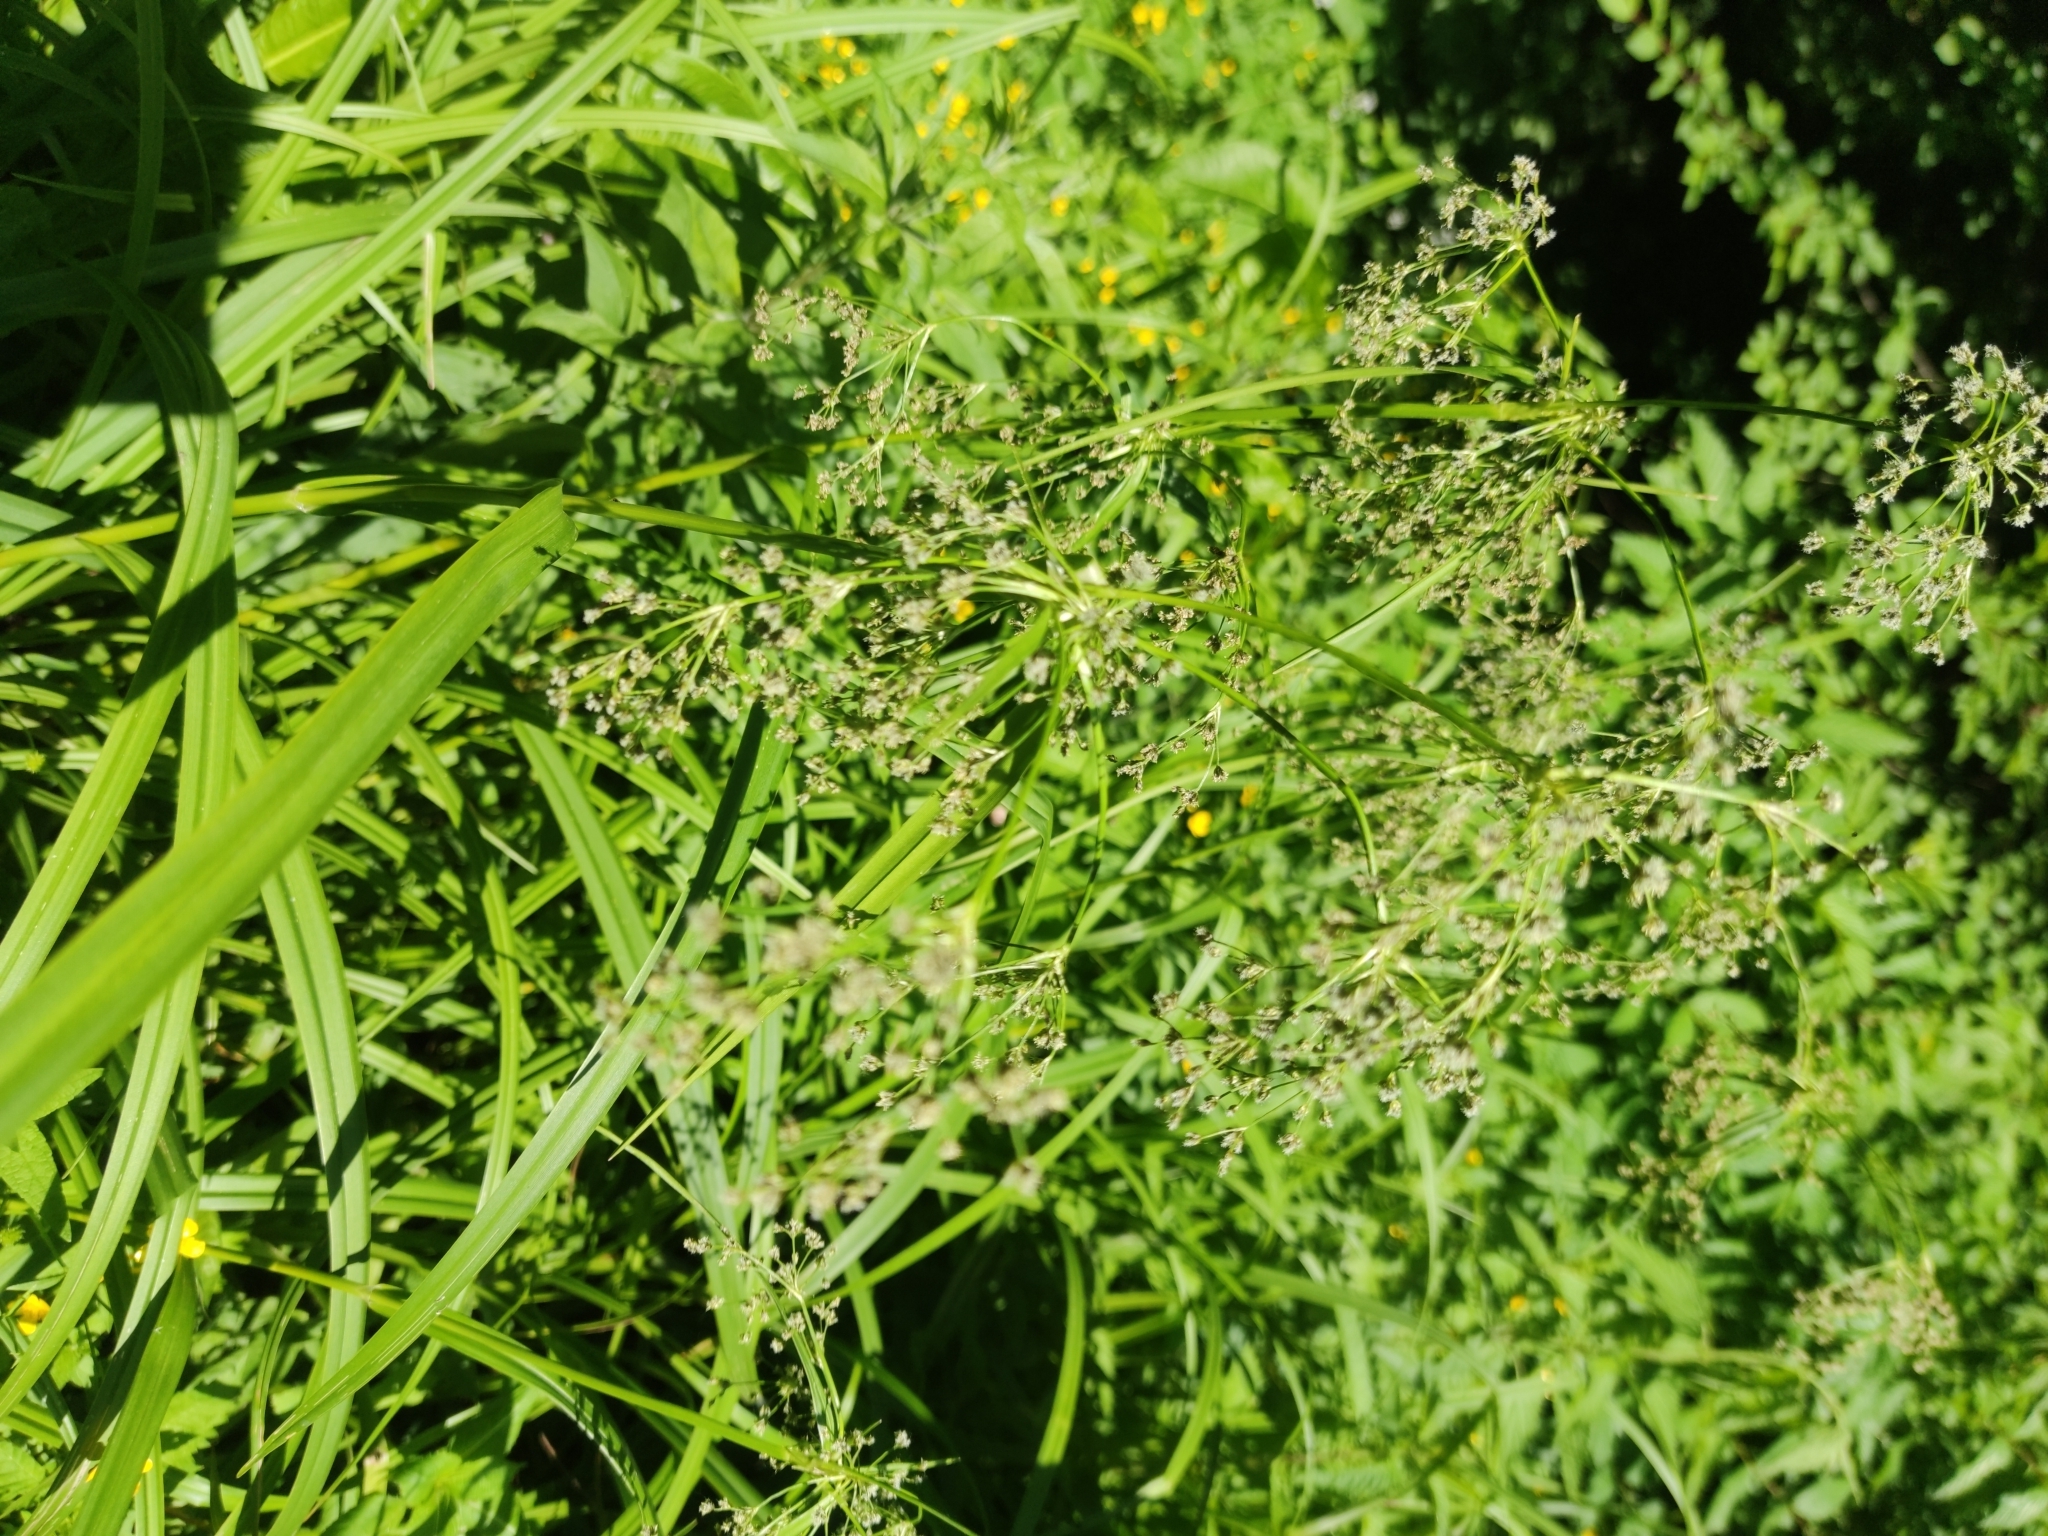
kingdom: Plantae
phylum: Tracheophyta
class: Liliopsida
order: Poales
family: Cyperaceae
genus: Scirpus
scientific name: Scirpus sylvaticus
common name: Wood club-rush
